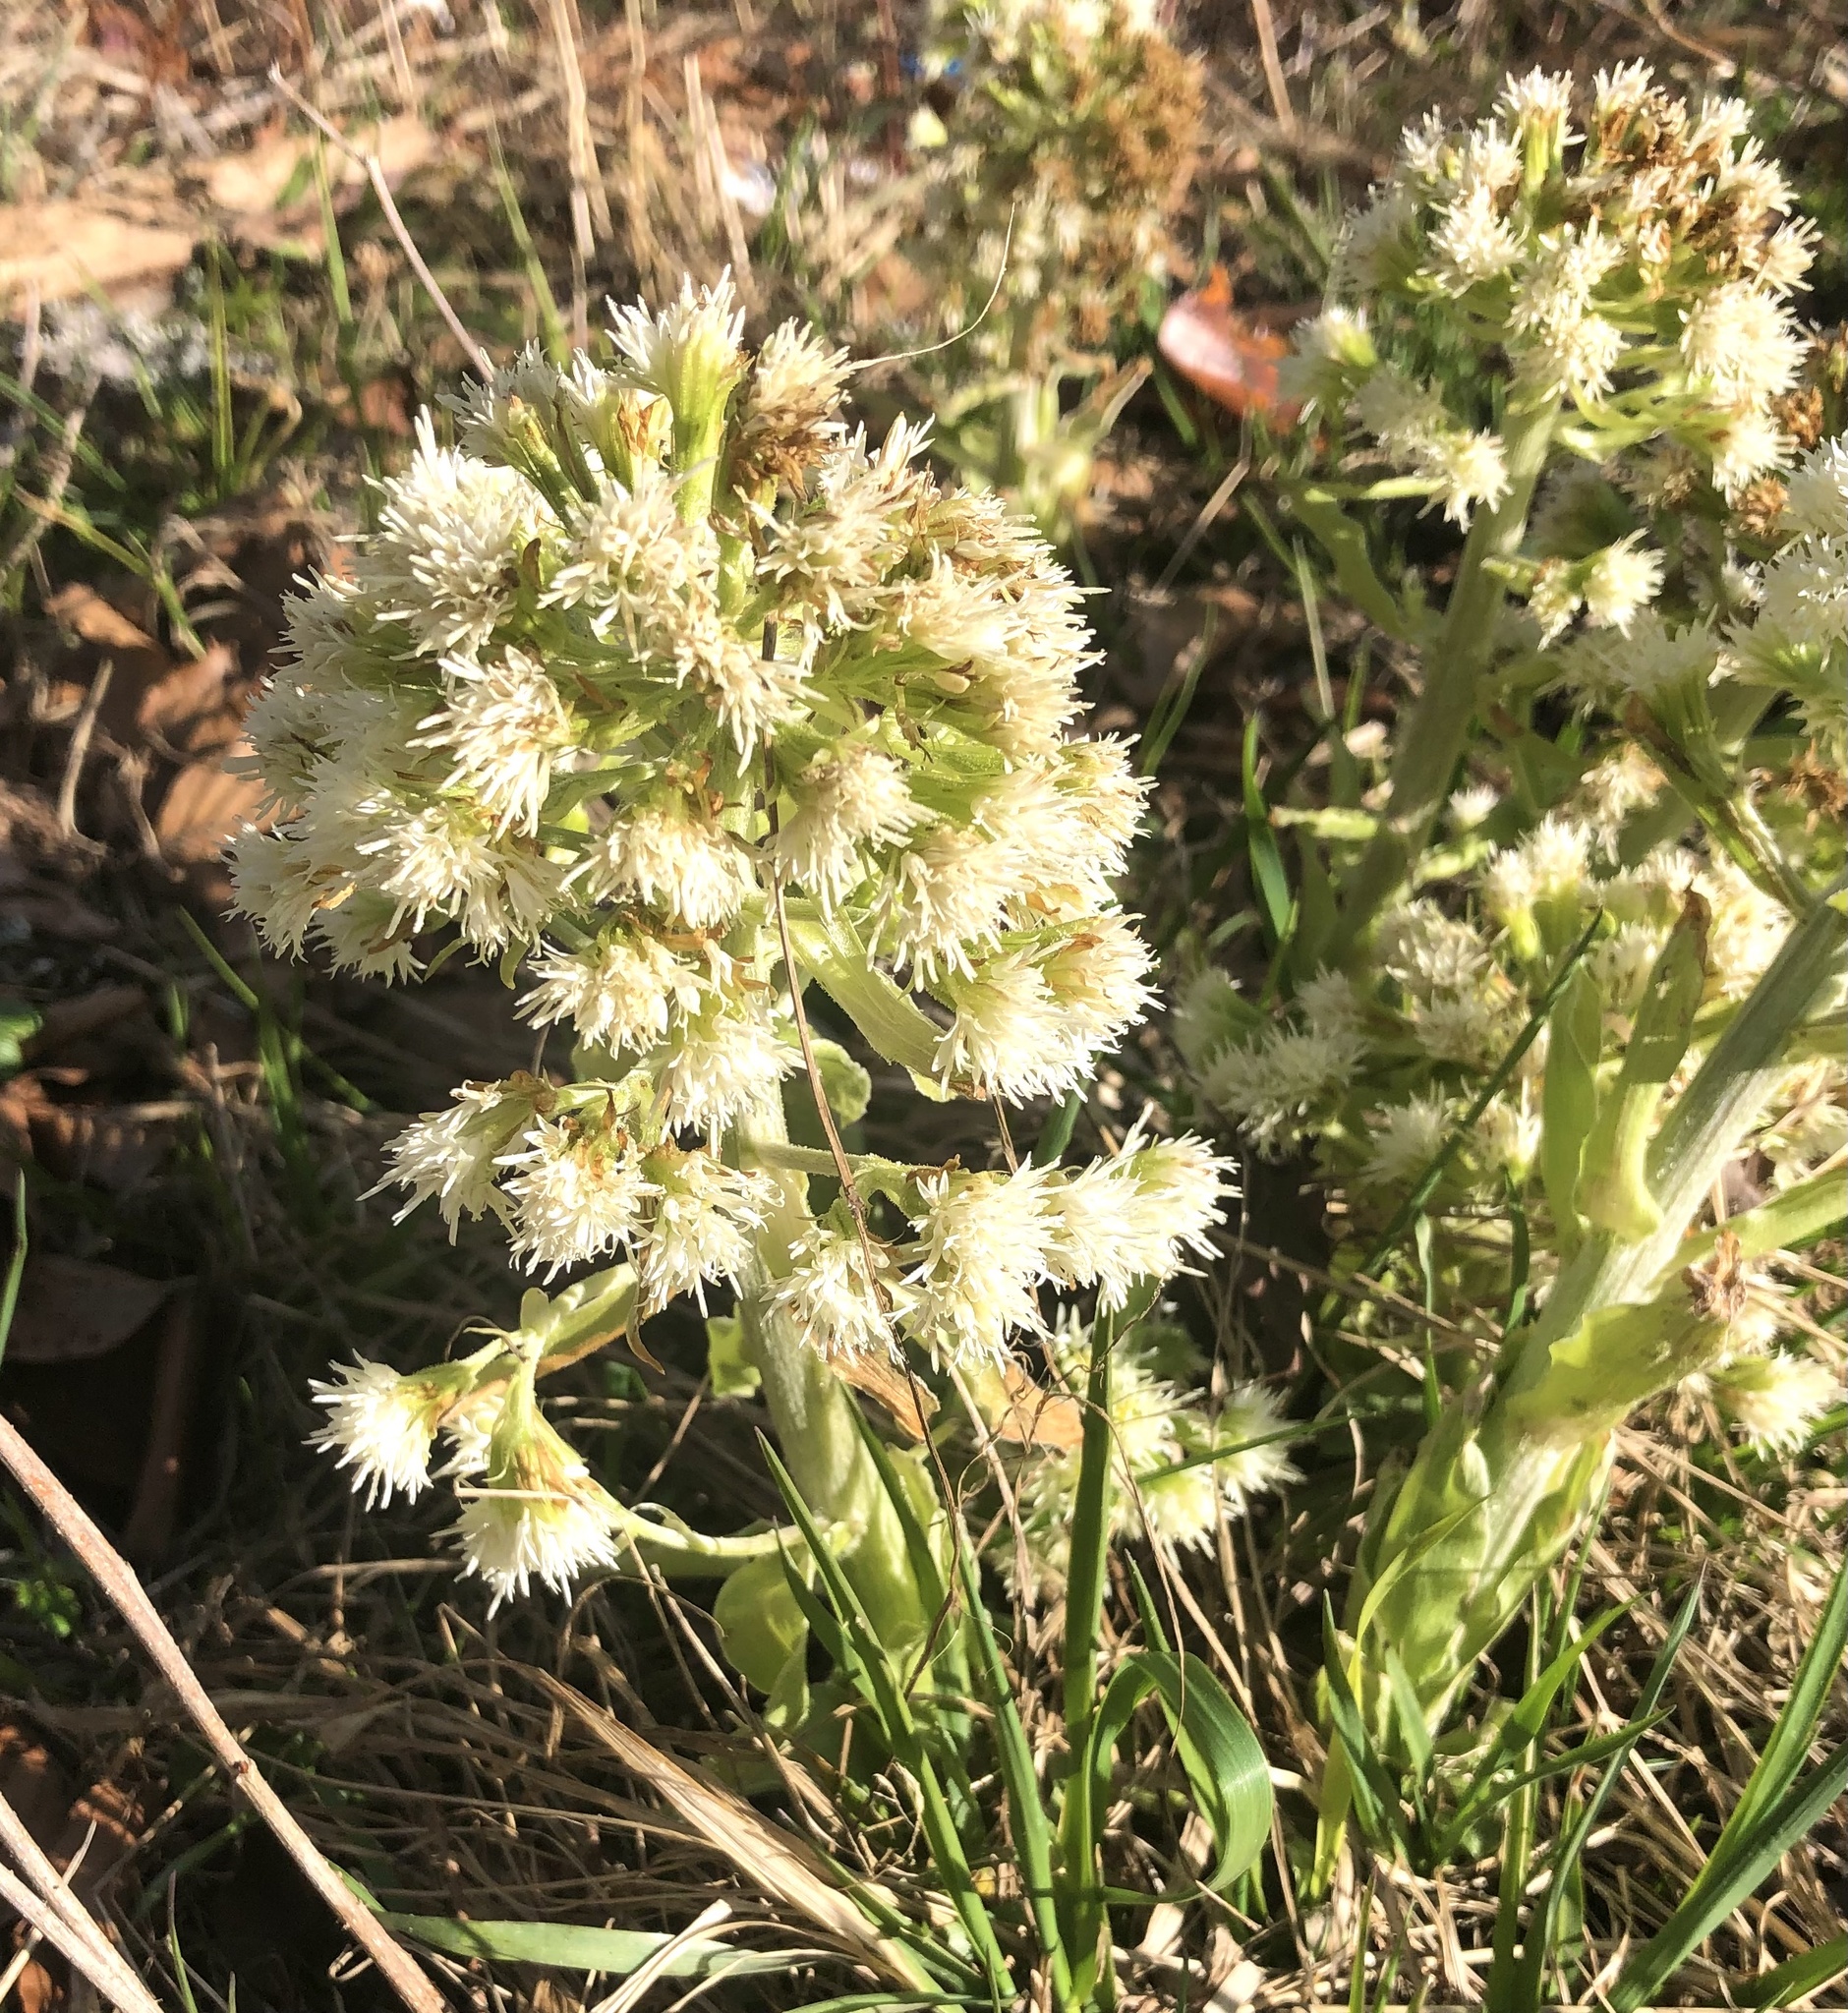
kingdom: Plantae
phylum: Tracheophyta
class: Magnoliopsida
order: Asterales
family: Asteraceae
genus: Petasites
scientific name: Petasites albus
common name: White butterbur
